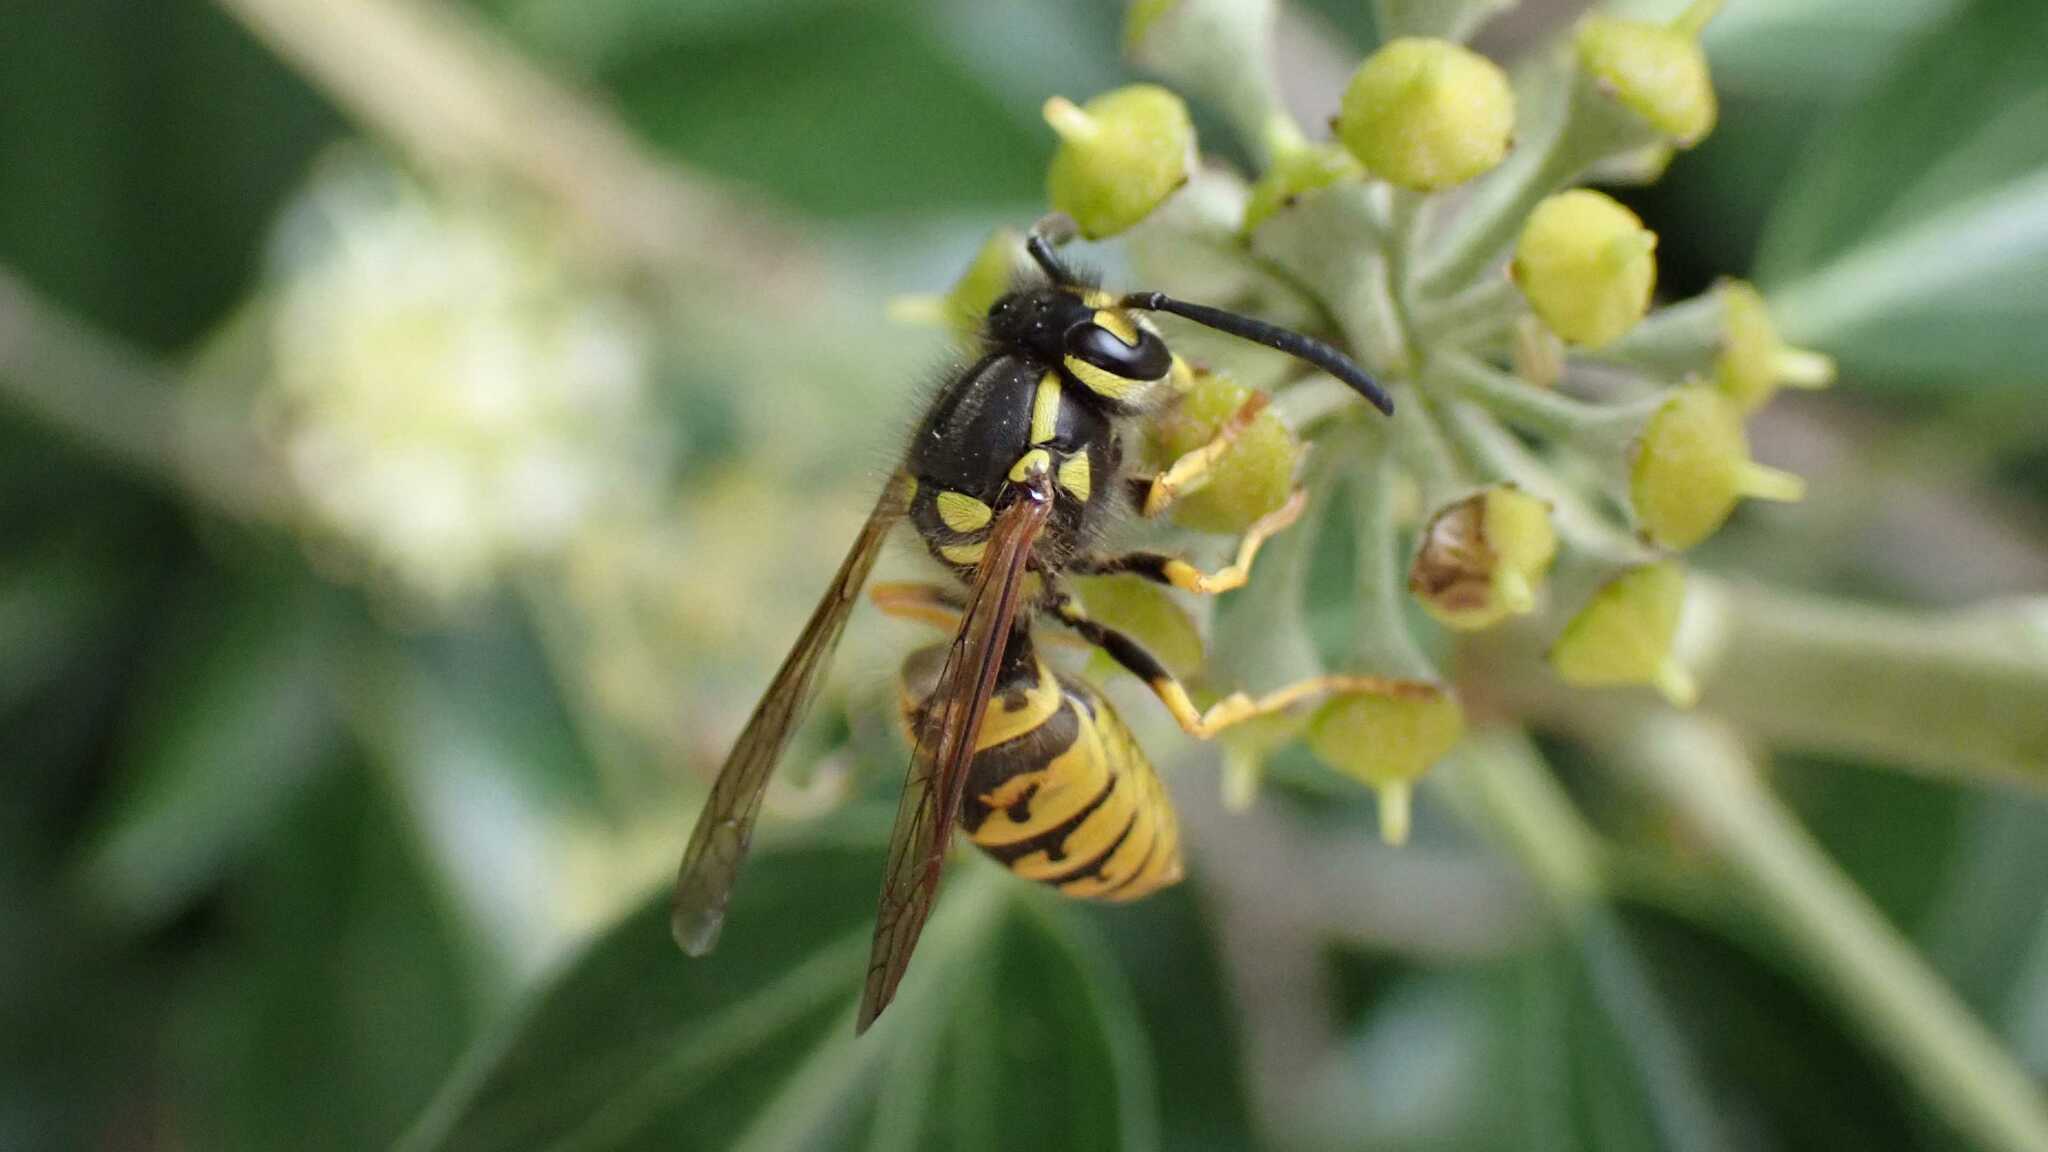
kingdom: Animalia
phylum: Arthropoda
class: Insecta
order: Hymenoptera
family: Vespidae
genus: Vespula
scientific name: Vespula germanica
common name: German wasp
